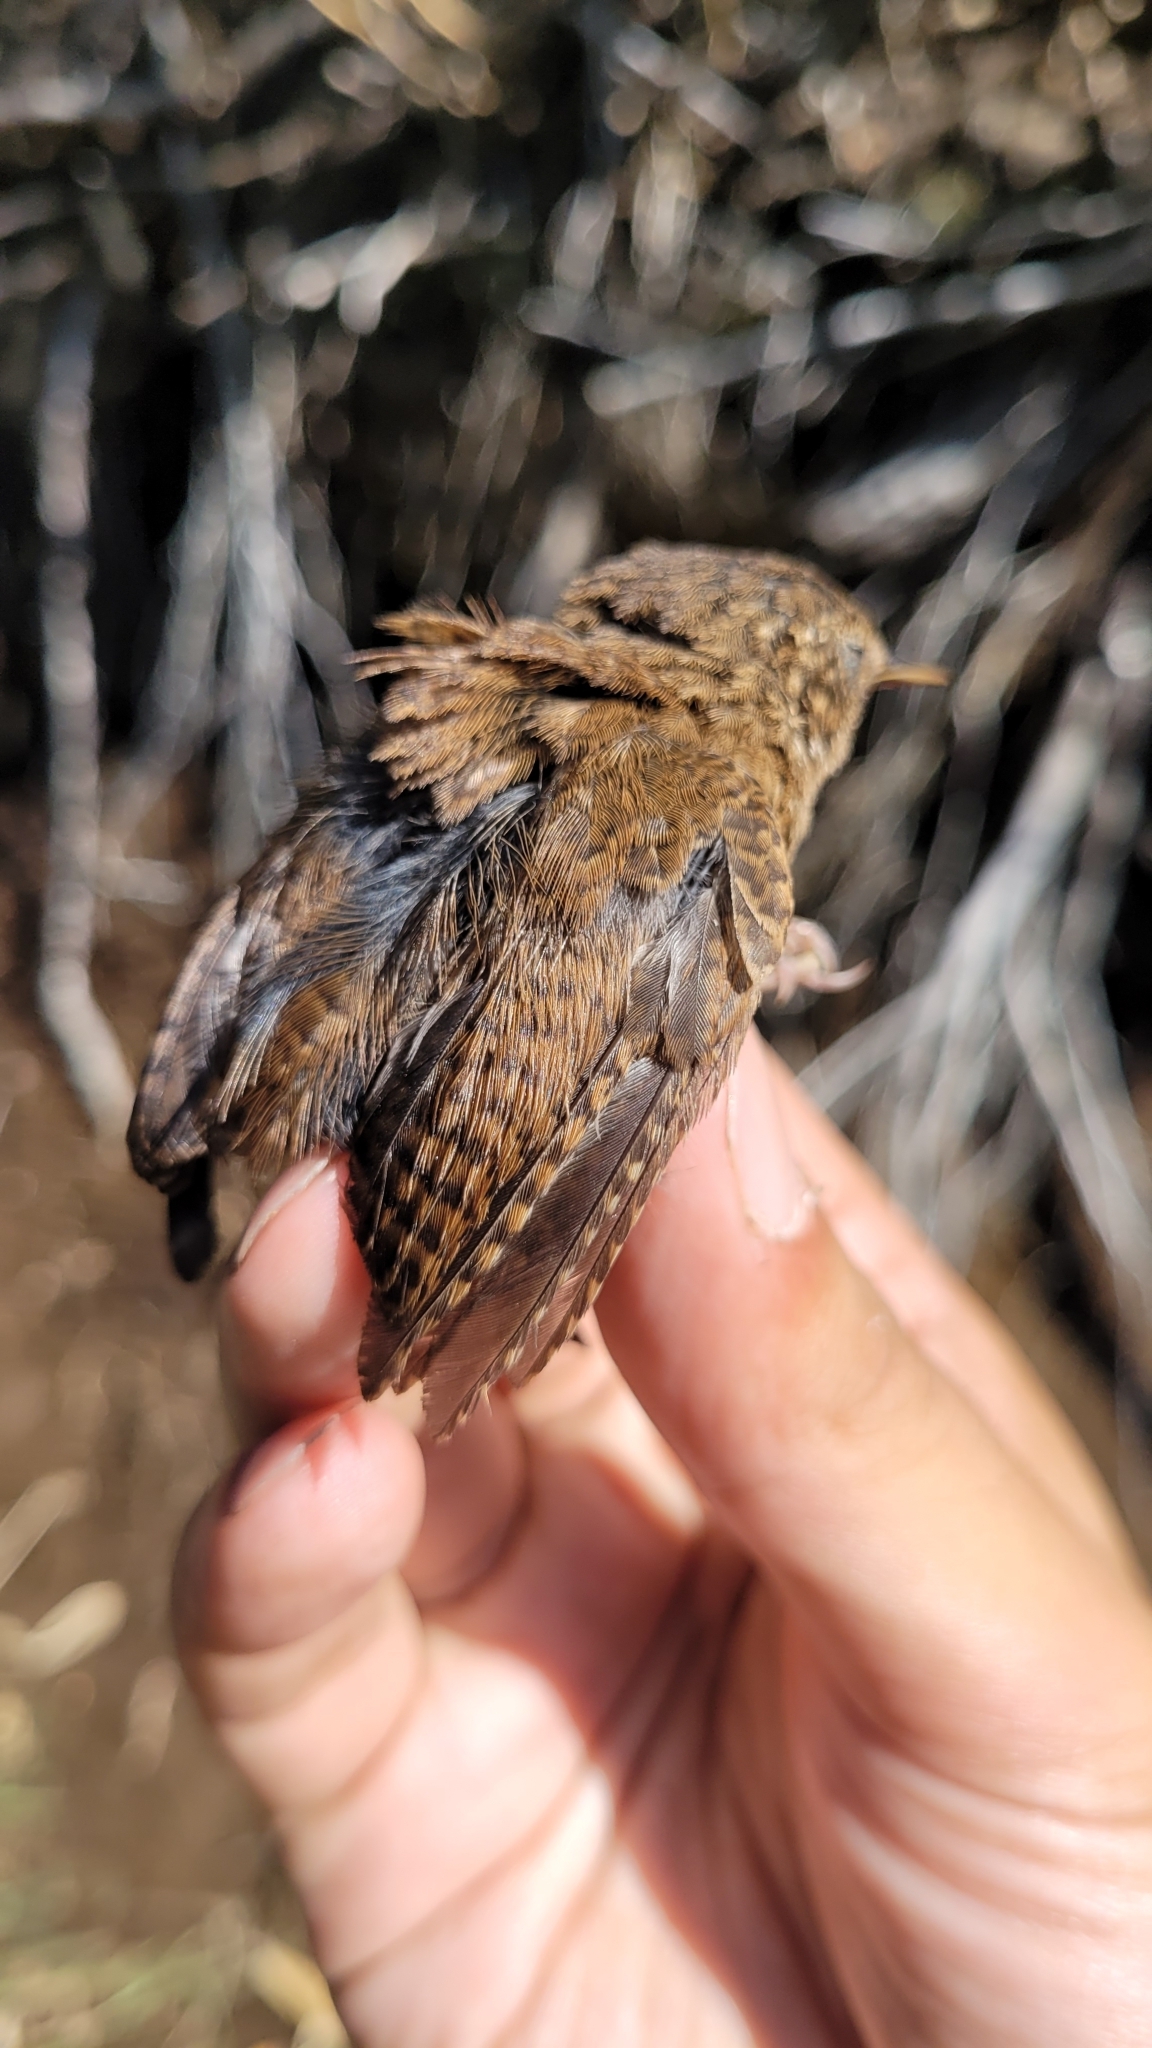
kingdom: Animalia
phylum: Chordata
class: Aves
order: Passeriformes
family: Troglodytidae
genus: Troglodytes
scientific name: Troglodytes troglodytes
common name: Eurasian wren
